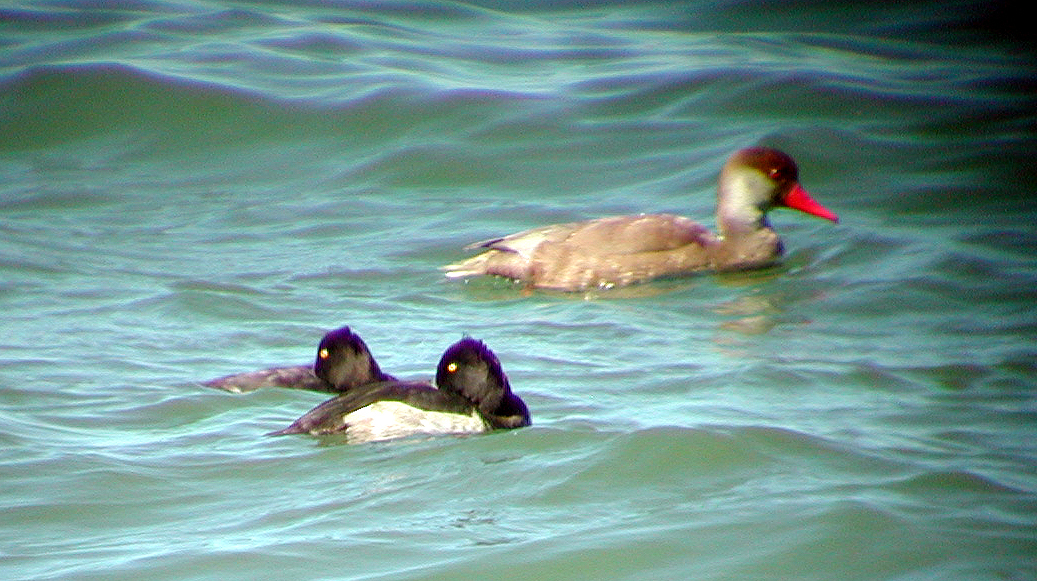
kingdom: Animalia
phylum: Chordata
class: Aves
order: Anseriformes
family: Anatidae
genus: Aythya
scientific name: Aythya fuligula
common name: Tufted duck
